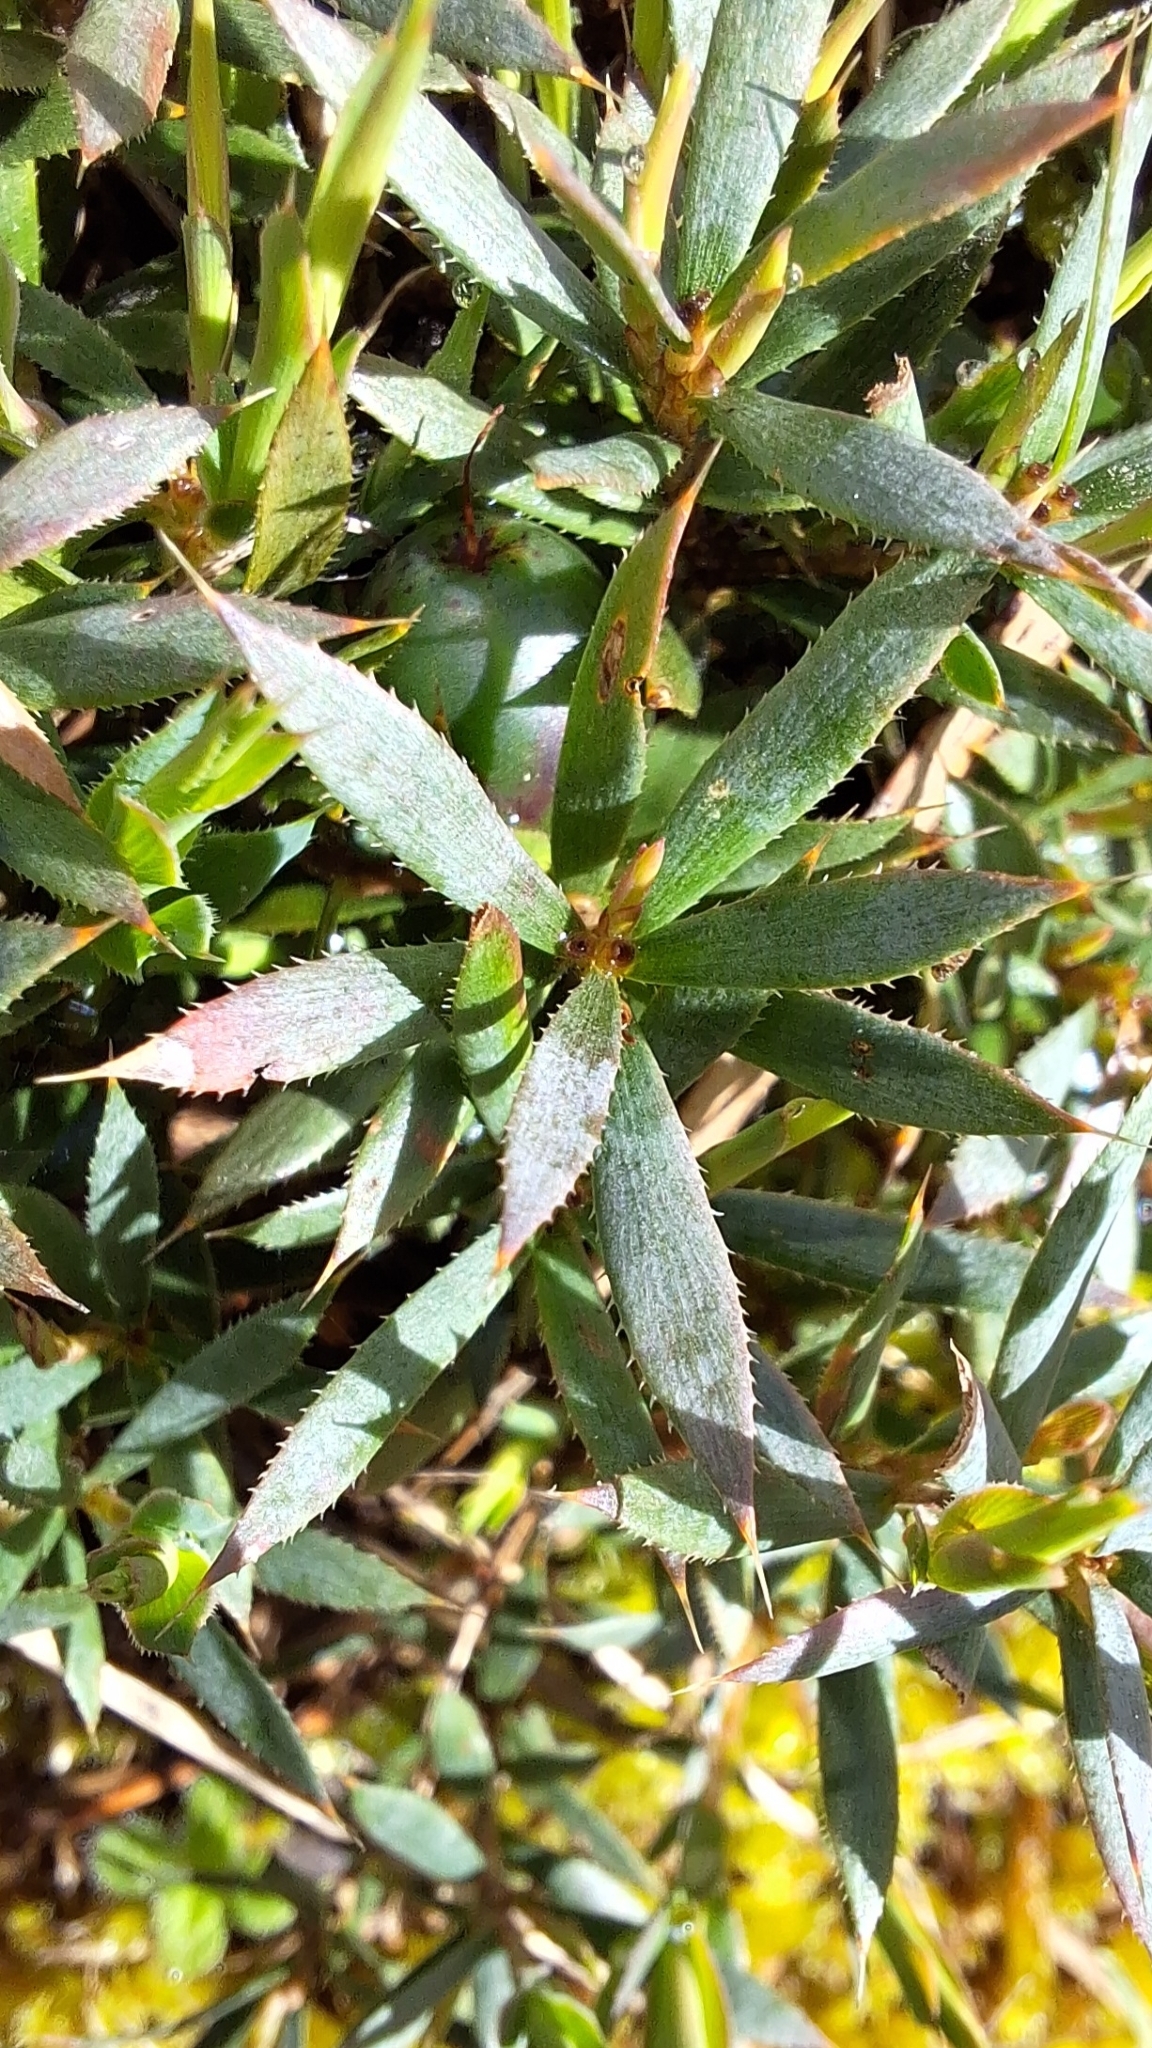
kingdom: Plantae
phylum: Tracheophyta
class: Magnoliopsida
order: Ericales
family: Ericaceae
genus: Styphelia
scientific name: Styphelia humifusa
